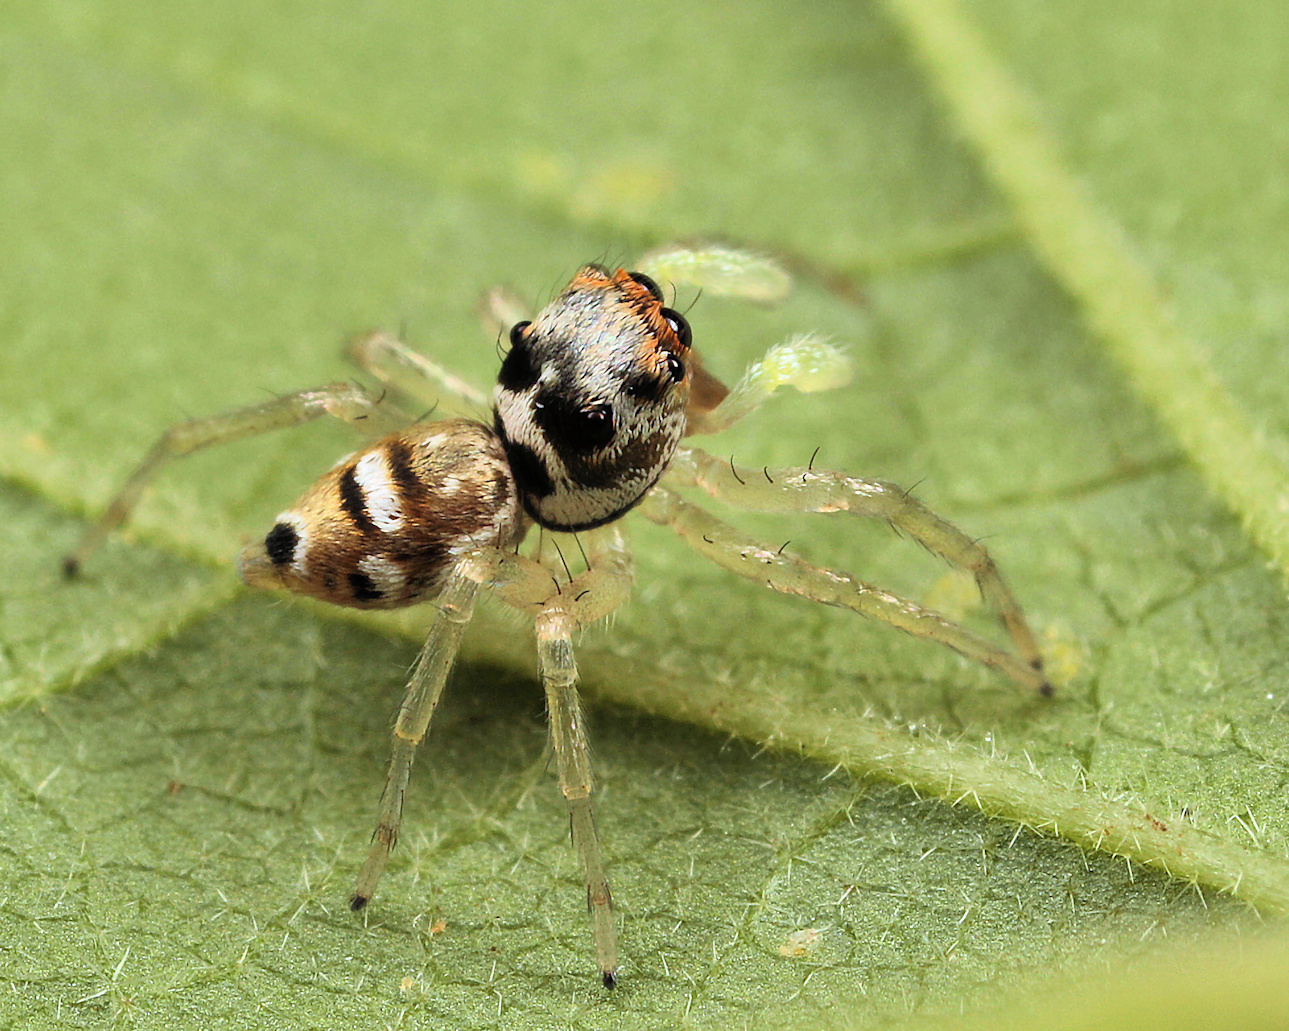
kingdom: Animalia
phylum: Arthropoda
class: Arachnida
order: Araneae
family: Salticidae
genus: Phintella
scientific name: Phintella aequipes
